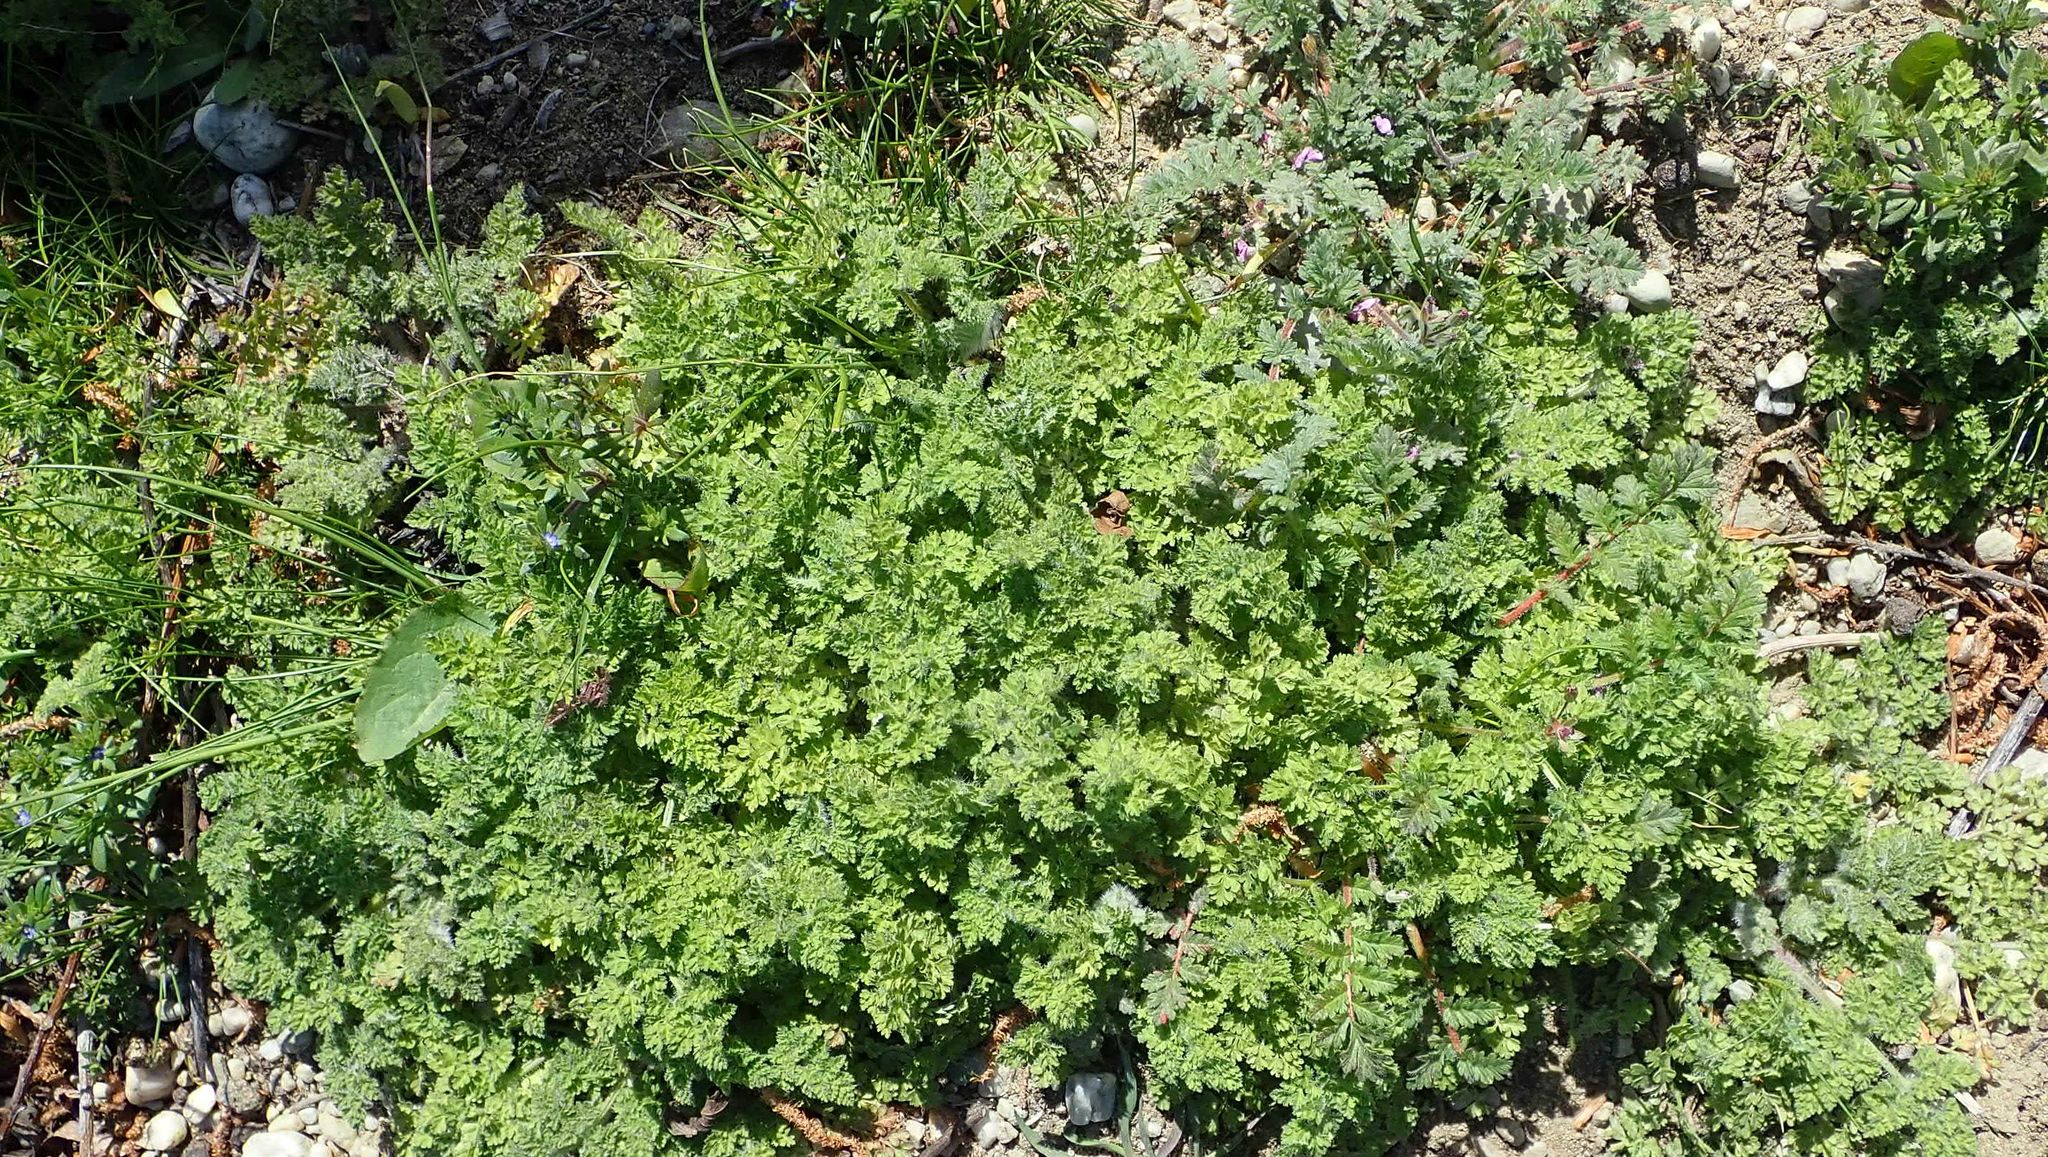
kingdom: Plantae
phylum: Tracheophyta
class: Magnoliopsida
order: Apiales
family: Apiaceae
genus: Anthriscus
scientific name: Anthriscus caucalis
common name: Bur chervil
